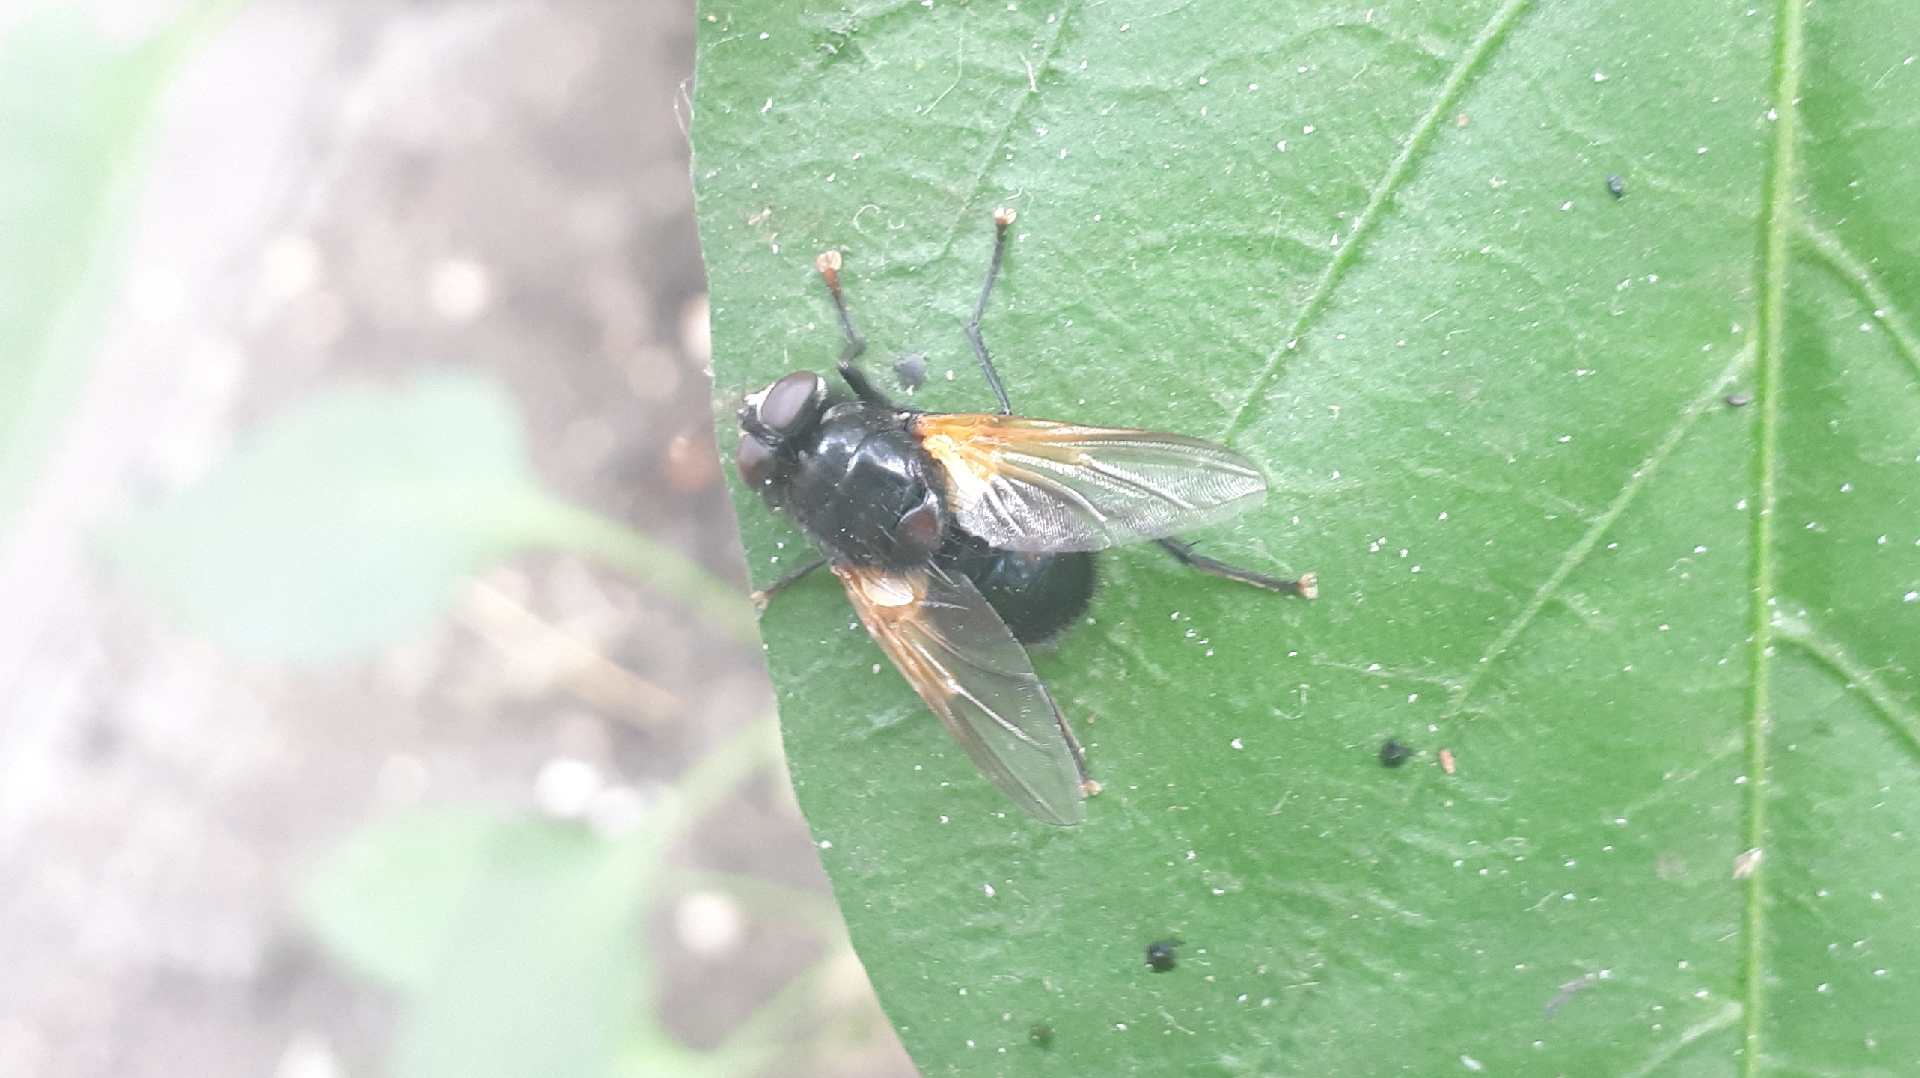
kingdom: Animalia
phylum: Arthropoda
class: Insecta
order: Diptera
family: Muscidae
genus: Mesembrina
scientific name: Mesembrina meridiana
